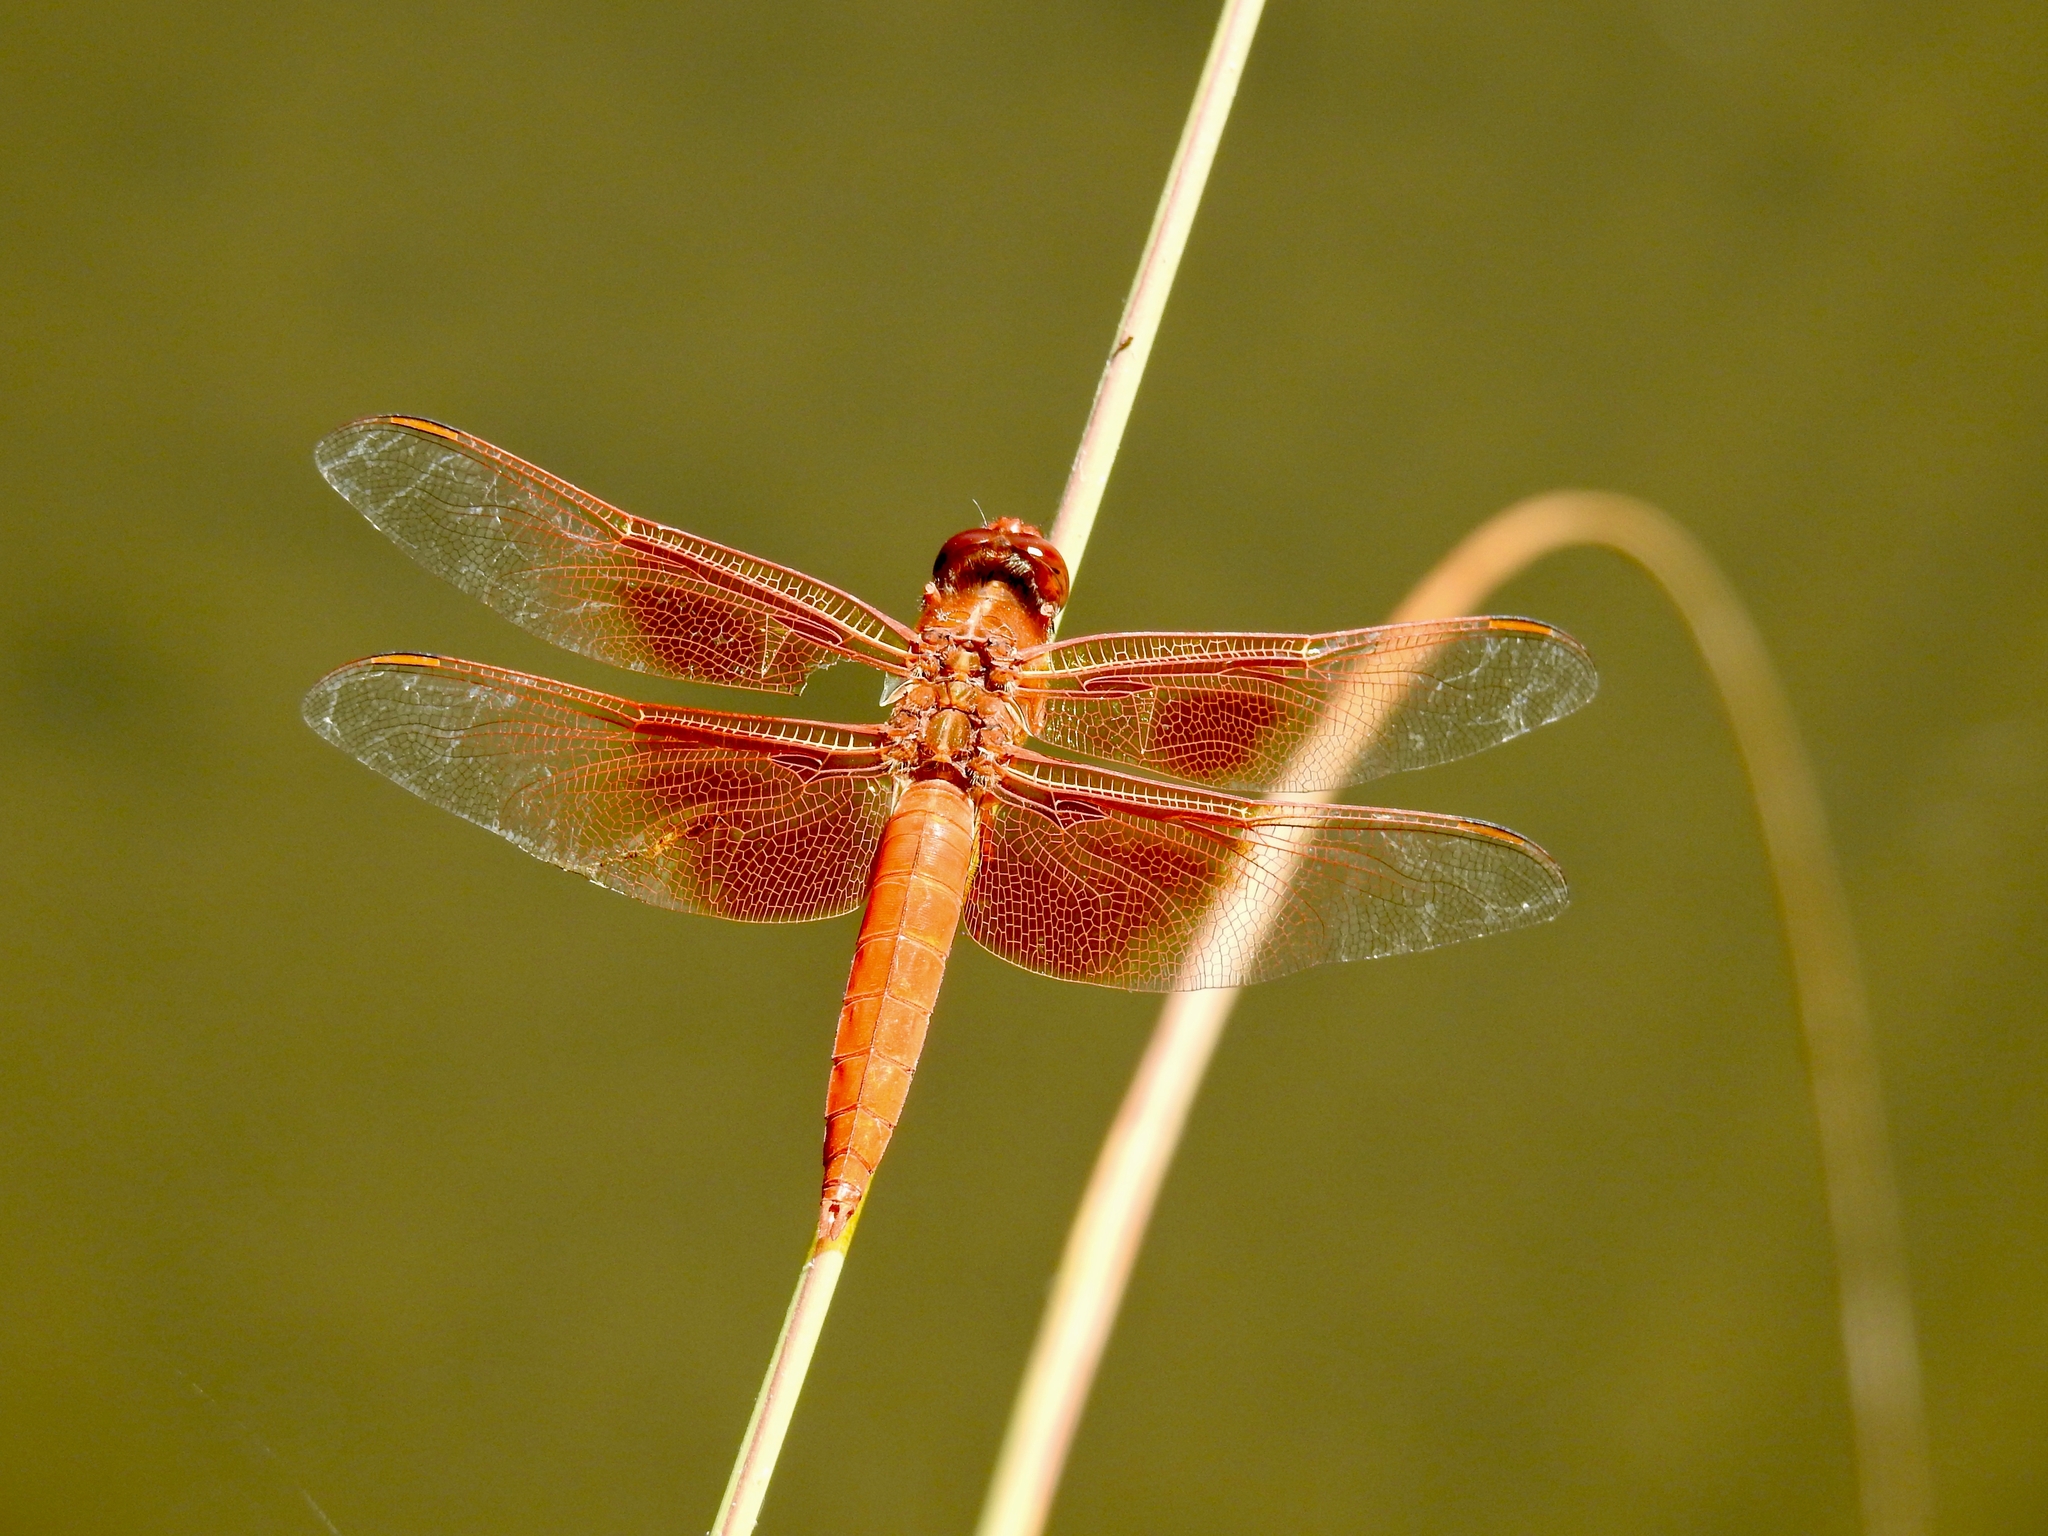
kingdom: Animalia
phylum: Arthropoda
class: Insecta
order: Odonata
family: Libellulidae
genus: Libellula
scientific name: Libellula saturata
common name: Flame skimmer
